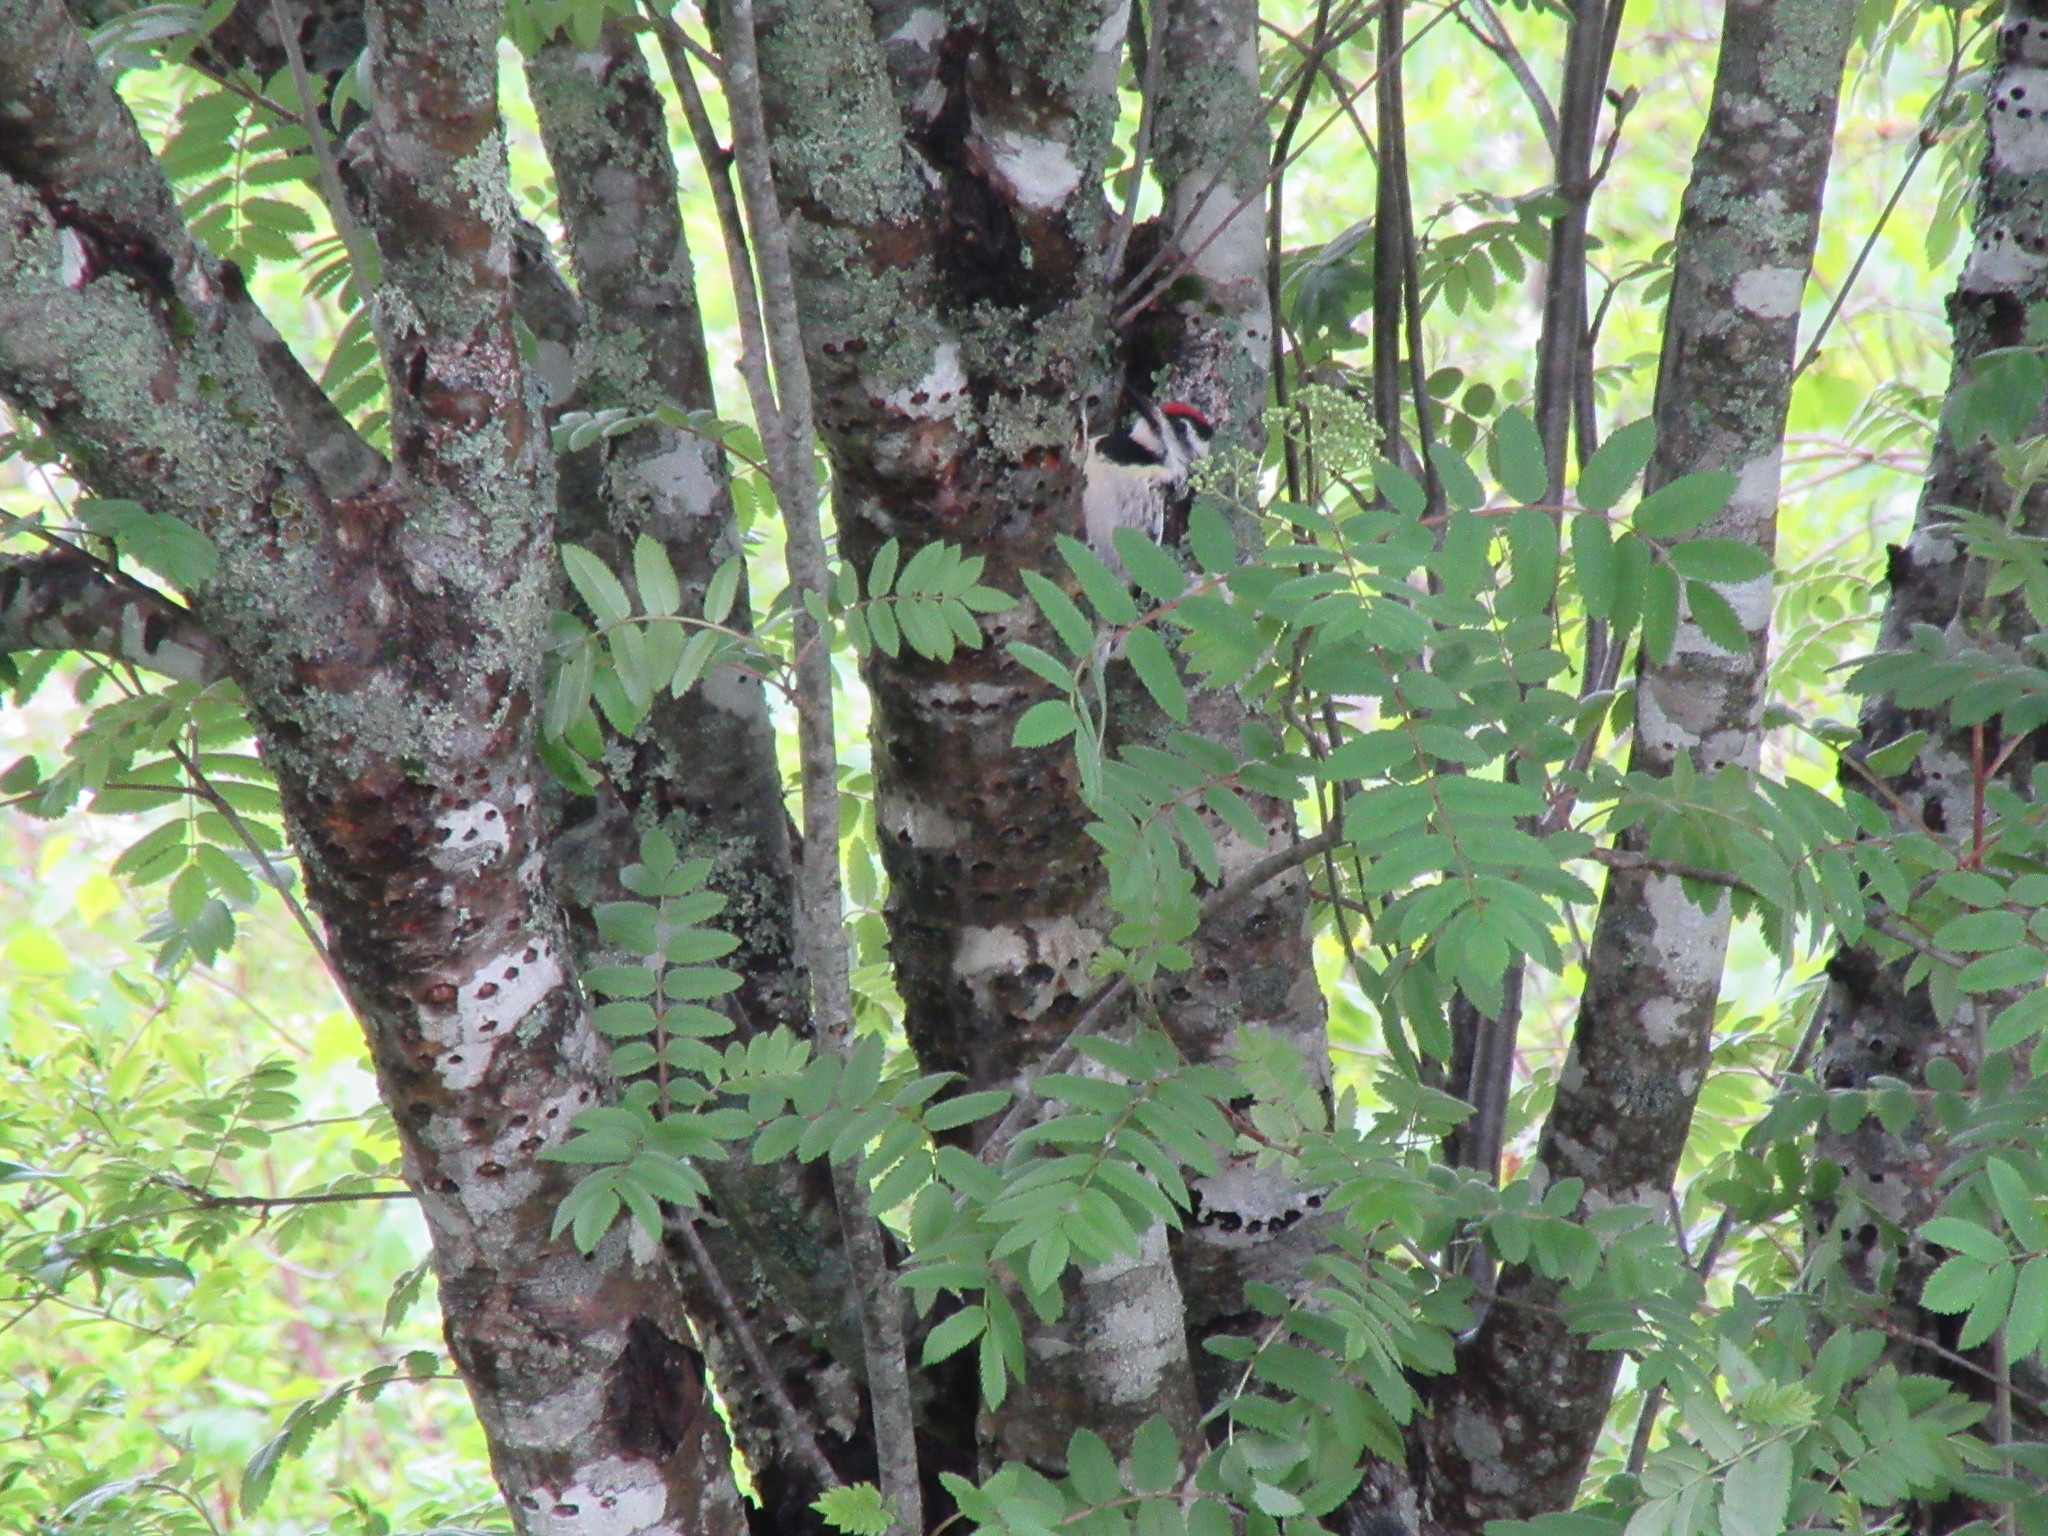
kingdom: Animalia
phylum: Chordata
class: Aves
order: Piciformes
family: Picidae
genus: Sphyrapicus
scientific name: Sphyrapicus varius
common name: Yellow-bellied sapsucker
